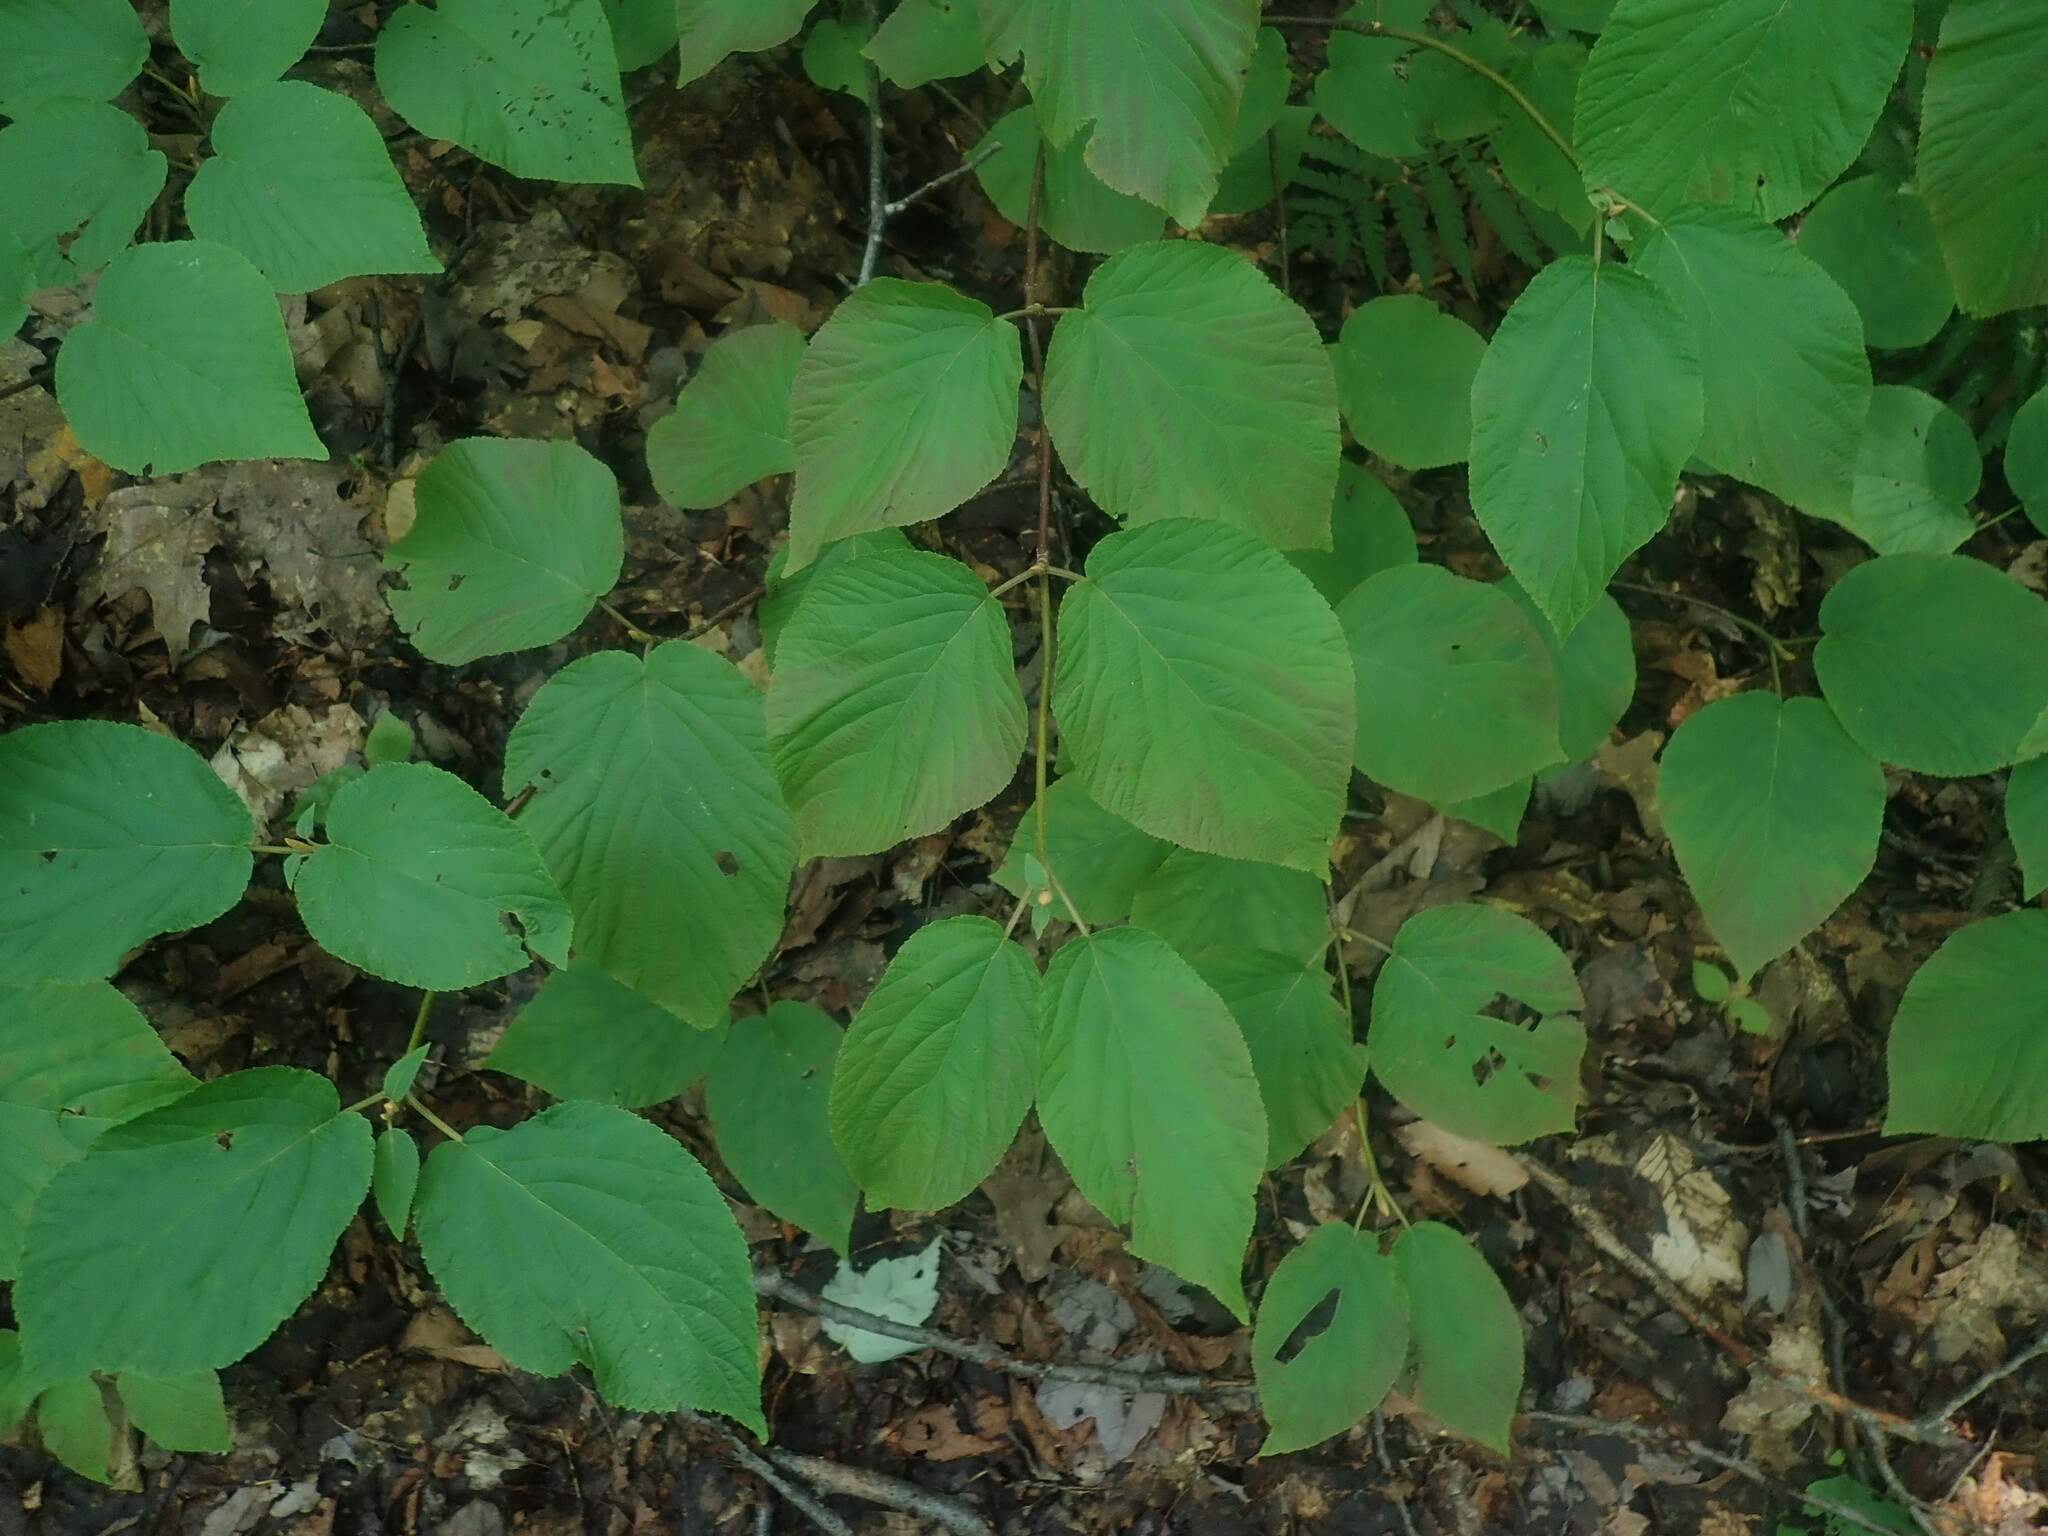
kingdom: Plantae
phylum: Tracheophyta
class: Magnoliopsida
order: Dipsacales
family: Viburnaceae
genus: Viburnum
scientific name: Viburnum lantanoides
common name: Hobblebush
